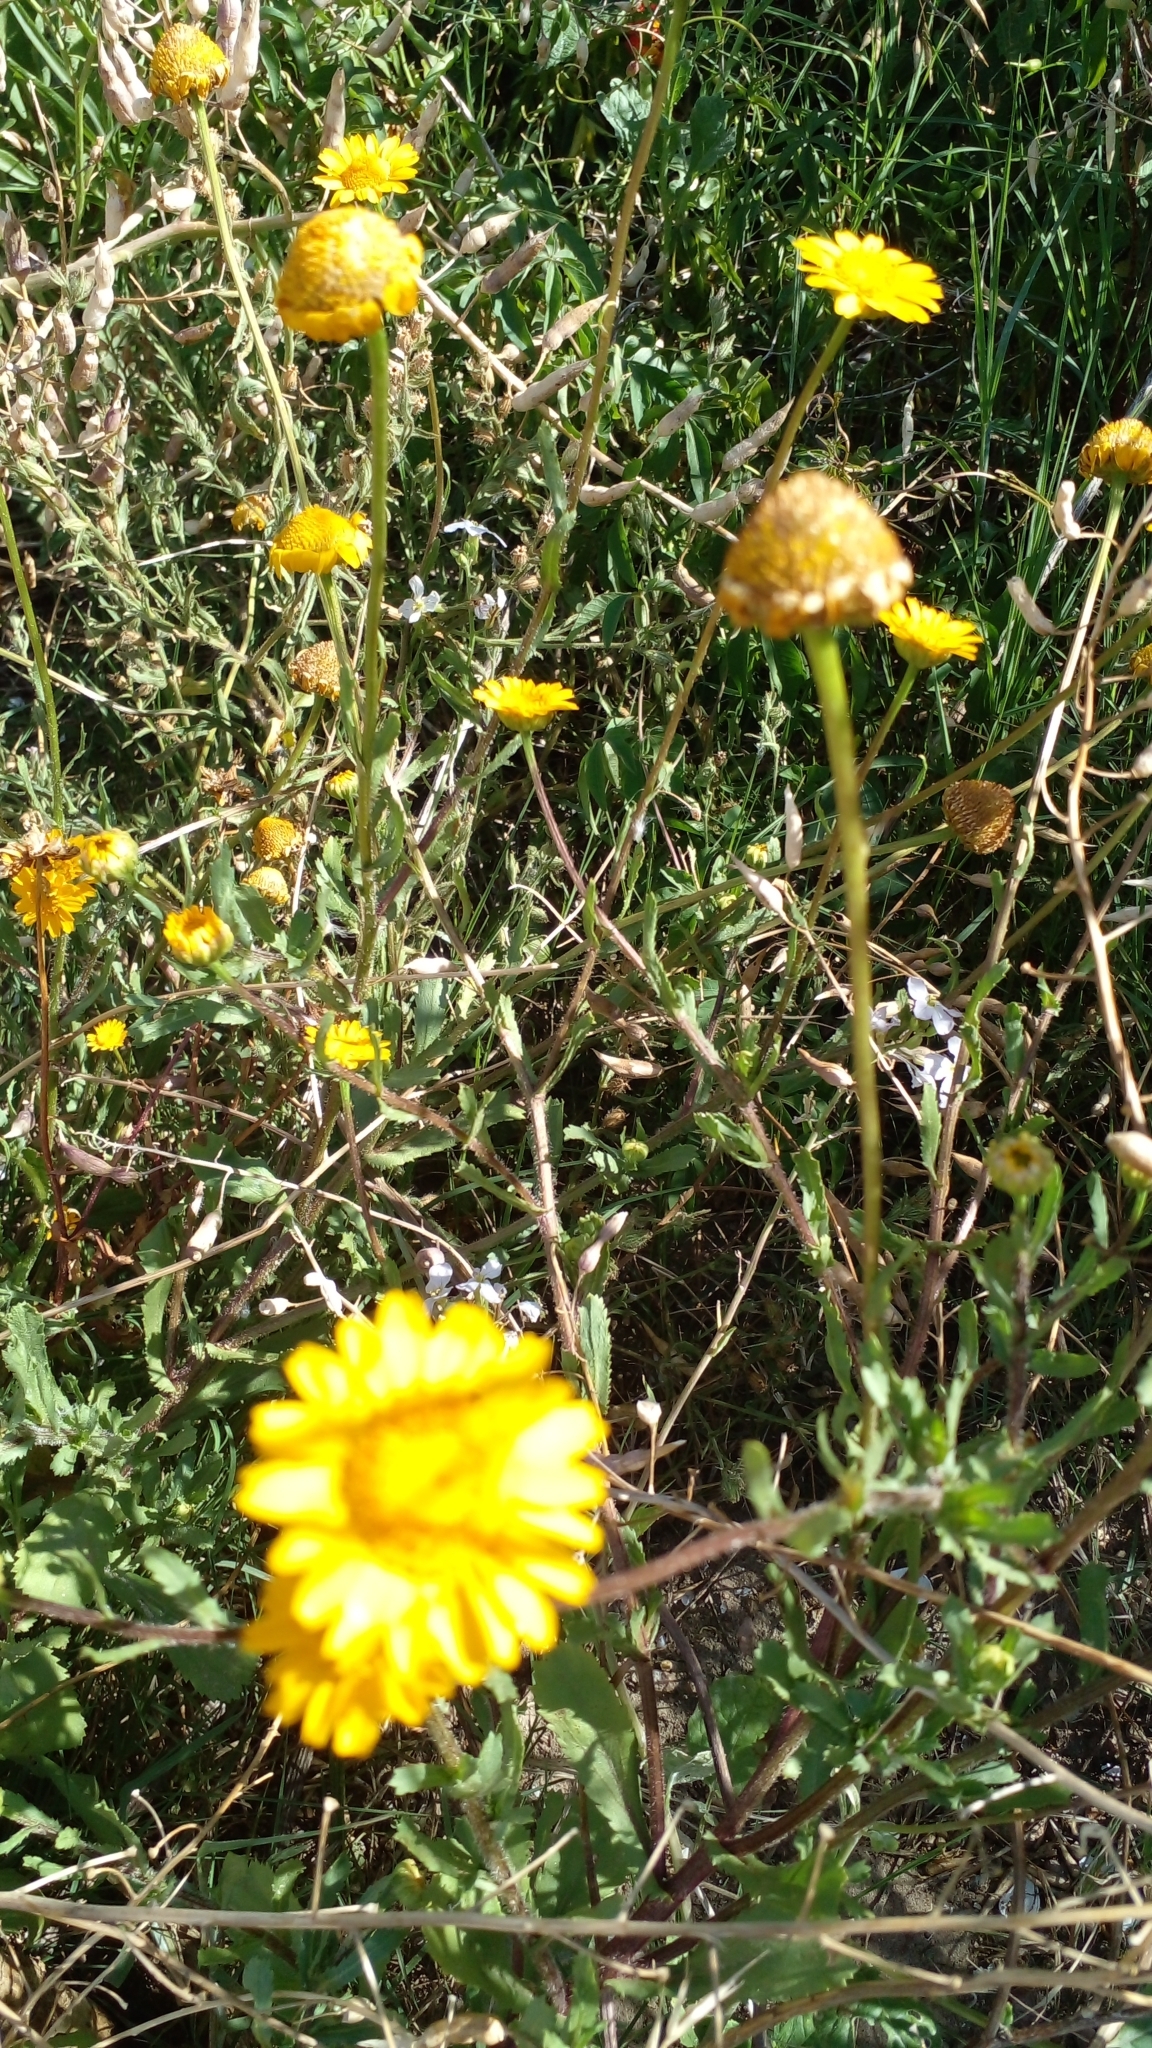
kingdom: Plantae
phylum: Tracheophyta
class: Magnoliopsida
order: Asterales
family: Asteraceae
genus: Coleostephus
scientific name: Coleostephus myconis
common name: Mediterranean marigold
